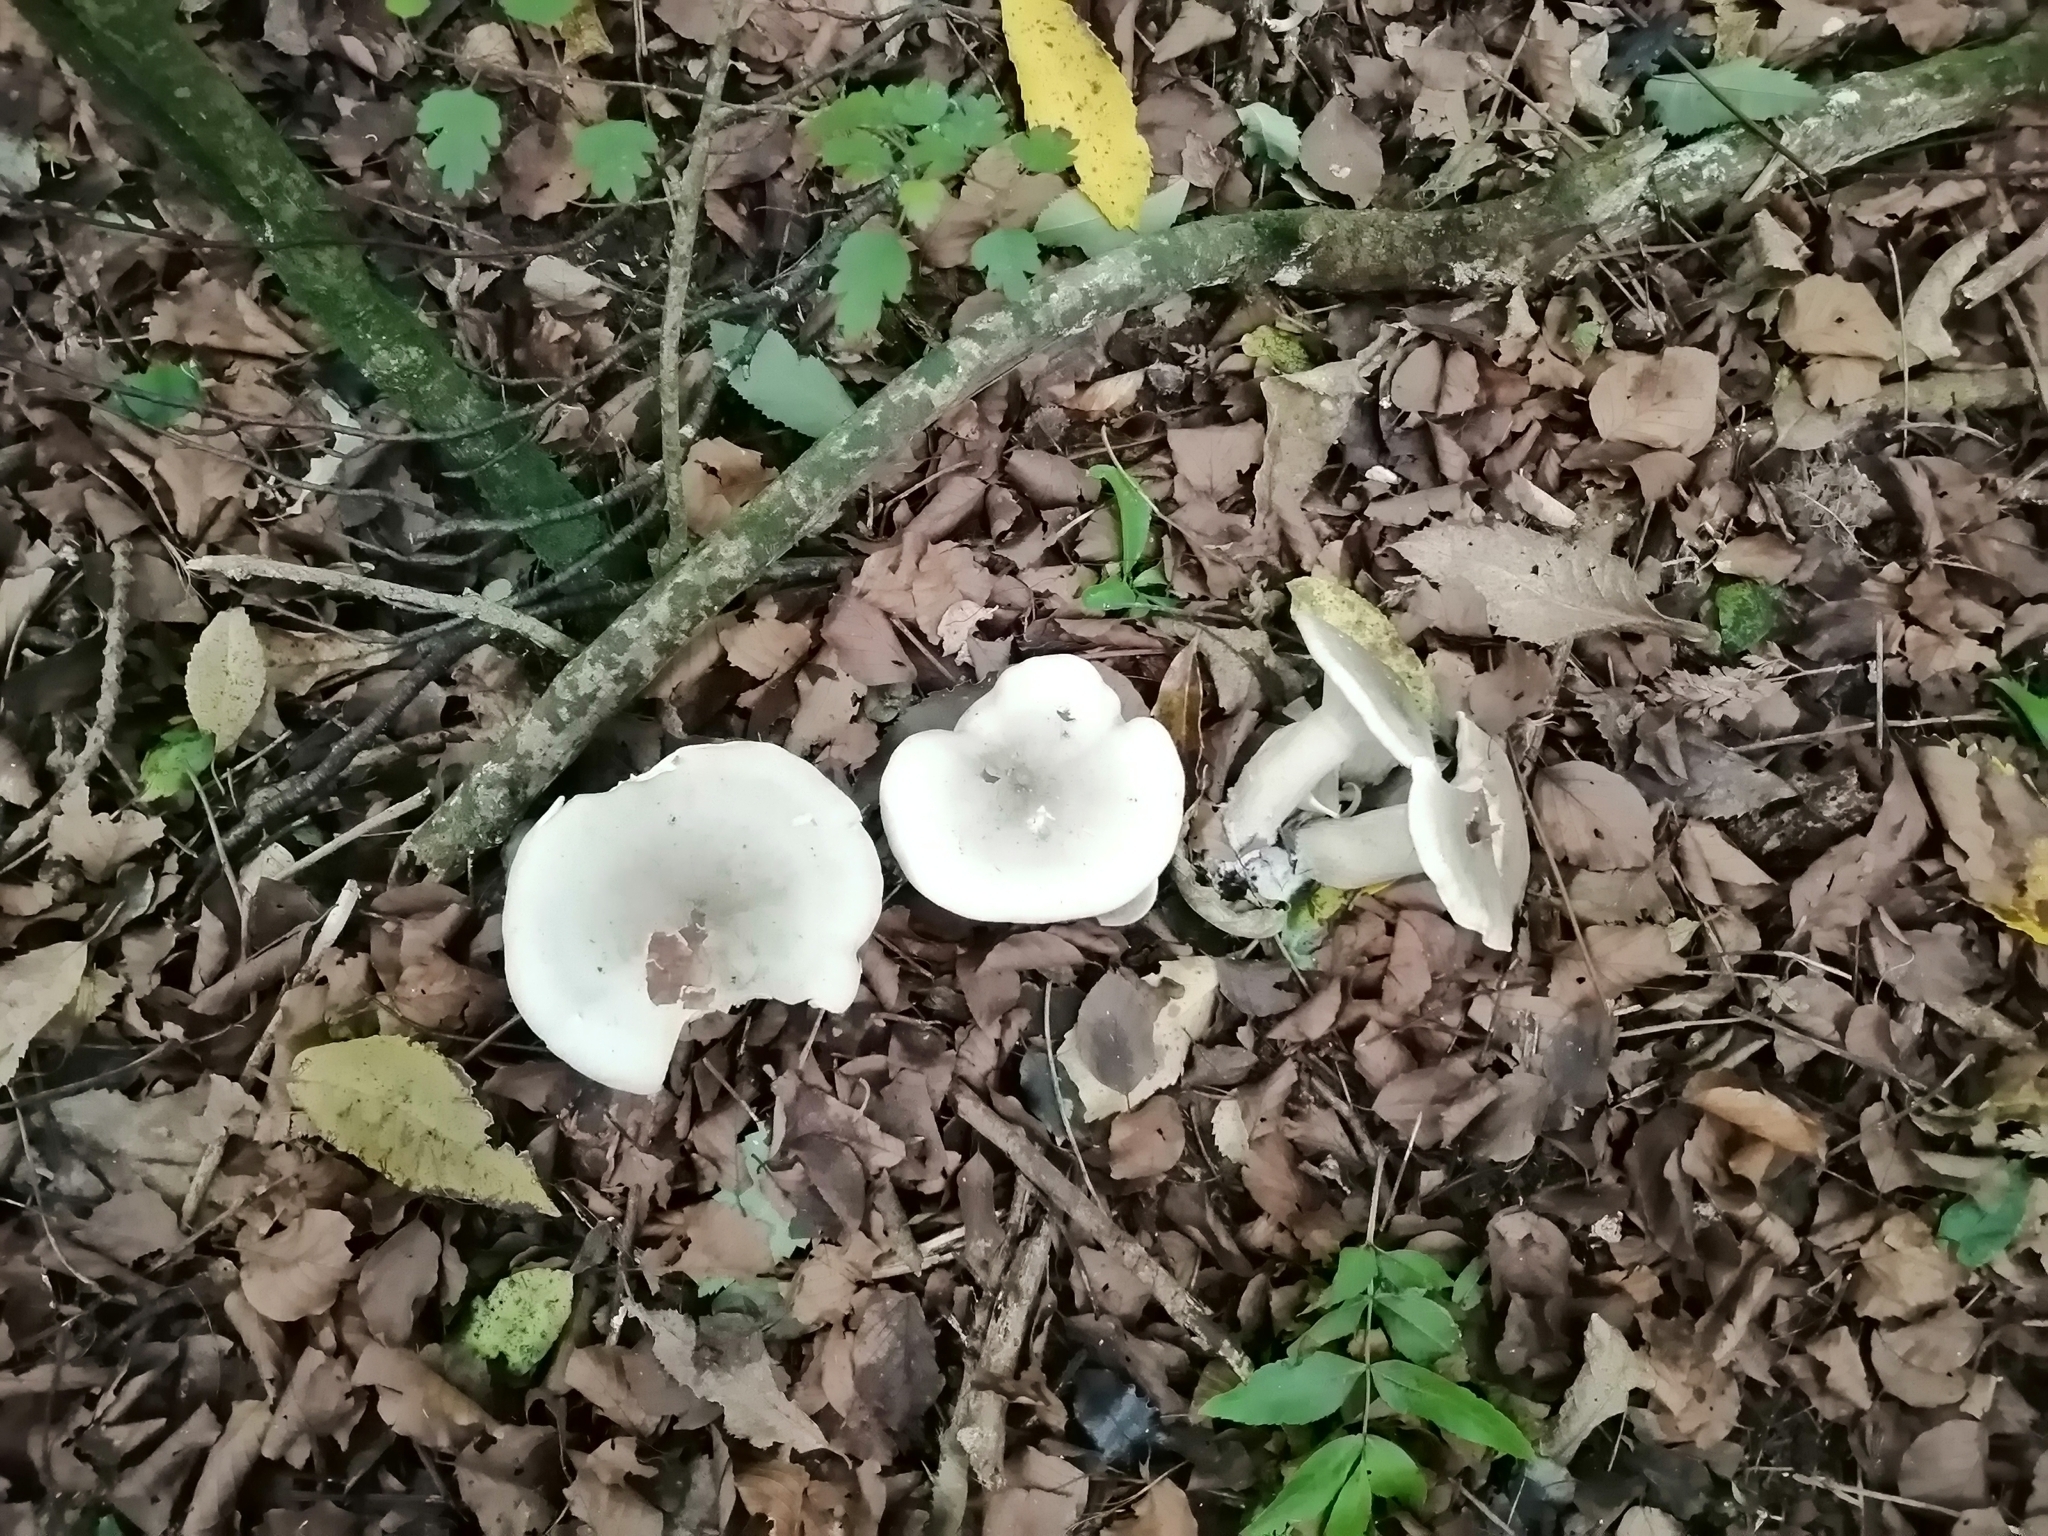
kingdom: Fungi
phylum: Basidiomycota
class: Agaricomycetes
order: Agaricales
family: Tricholomataceae
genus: Clitocybe
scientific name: Clitocybe nebularis
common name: Clouded agaric
